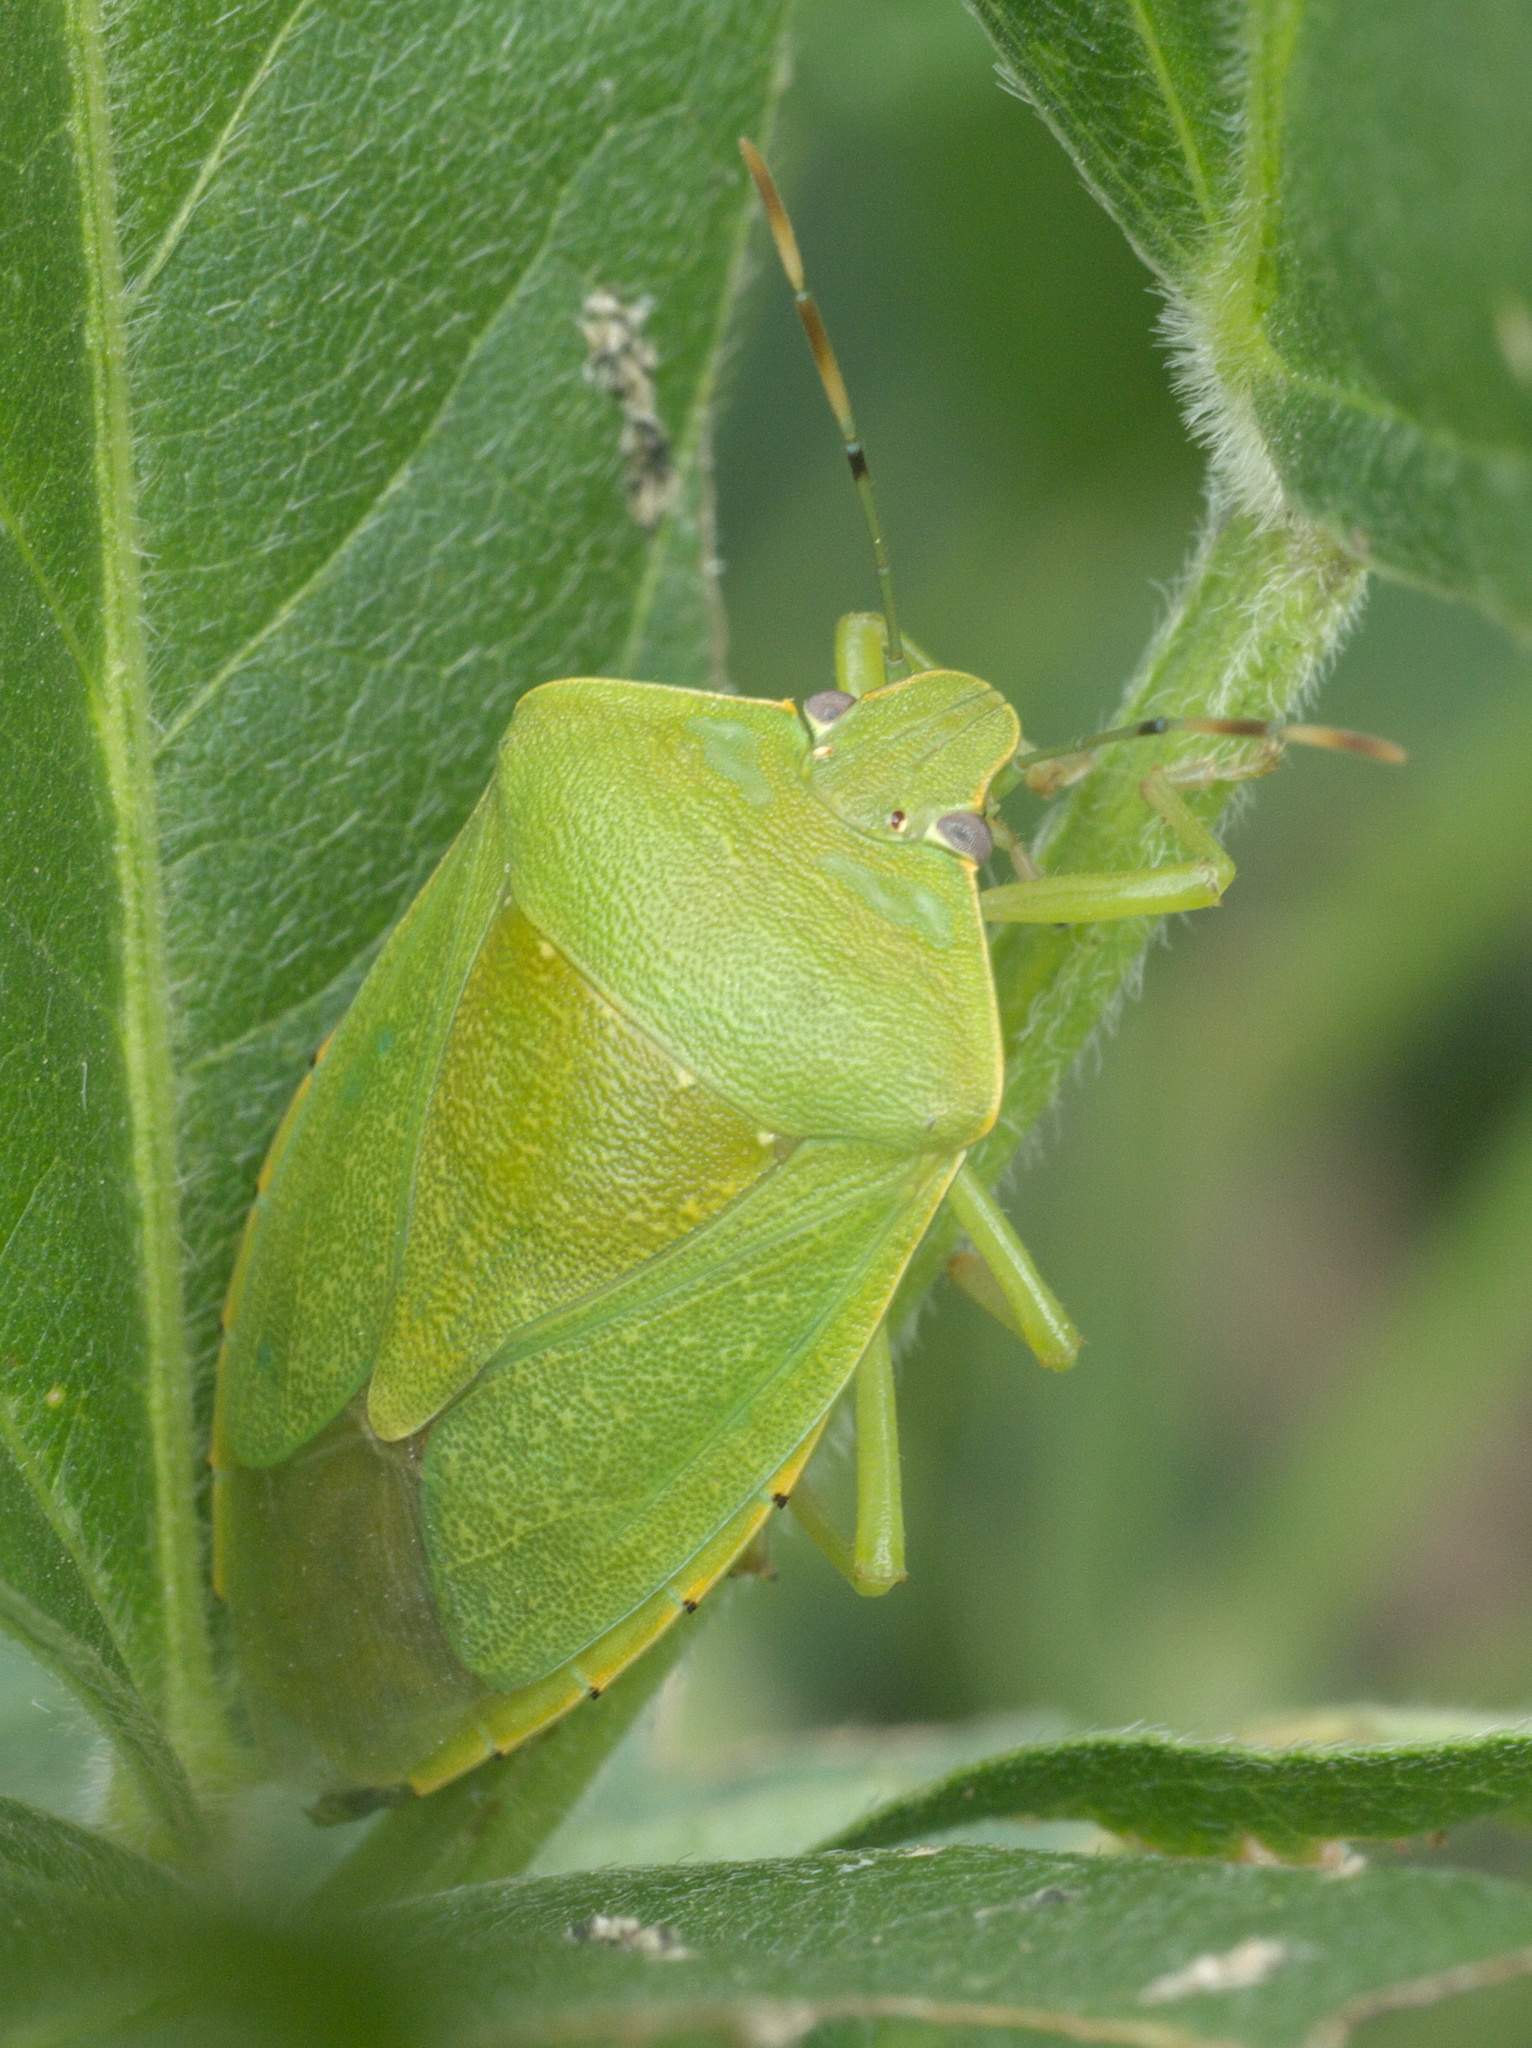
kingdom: Animalia
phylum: Arthropoda
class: Insecta
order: Hemiptera
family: Pentatomidae
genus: Chinavia
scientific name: Chinavia hilaris
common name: Green stink bug
